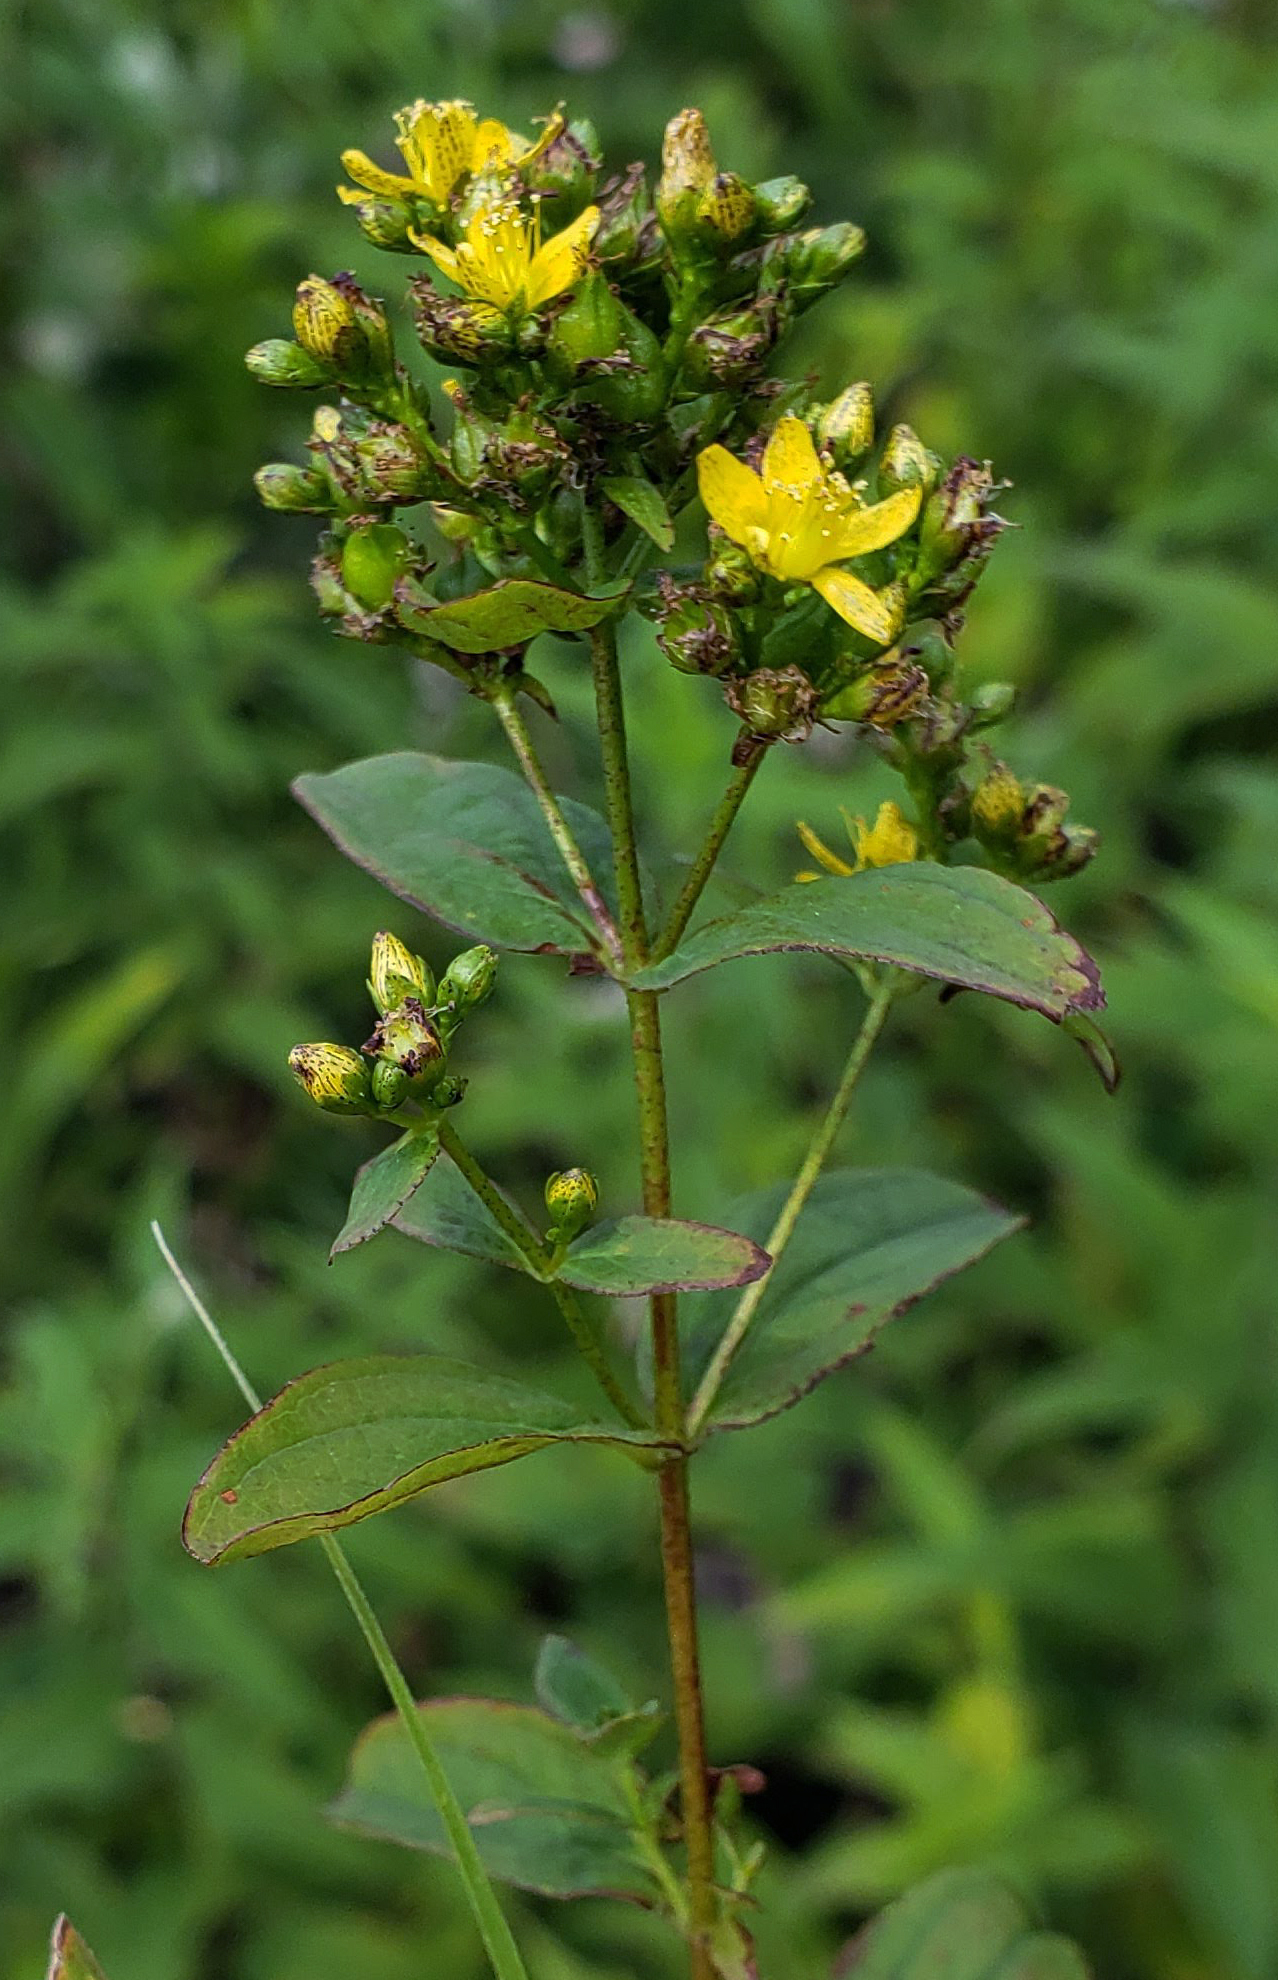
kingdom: Plantae
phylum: Tracheophyta
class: Magnoliopsida
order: Malpighiales
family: Hypericaceae
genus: Hypericum
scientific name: Hypericum punctatum
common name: Spotted st. john's-wort
